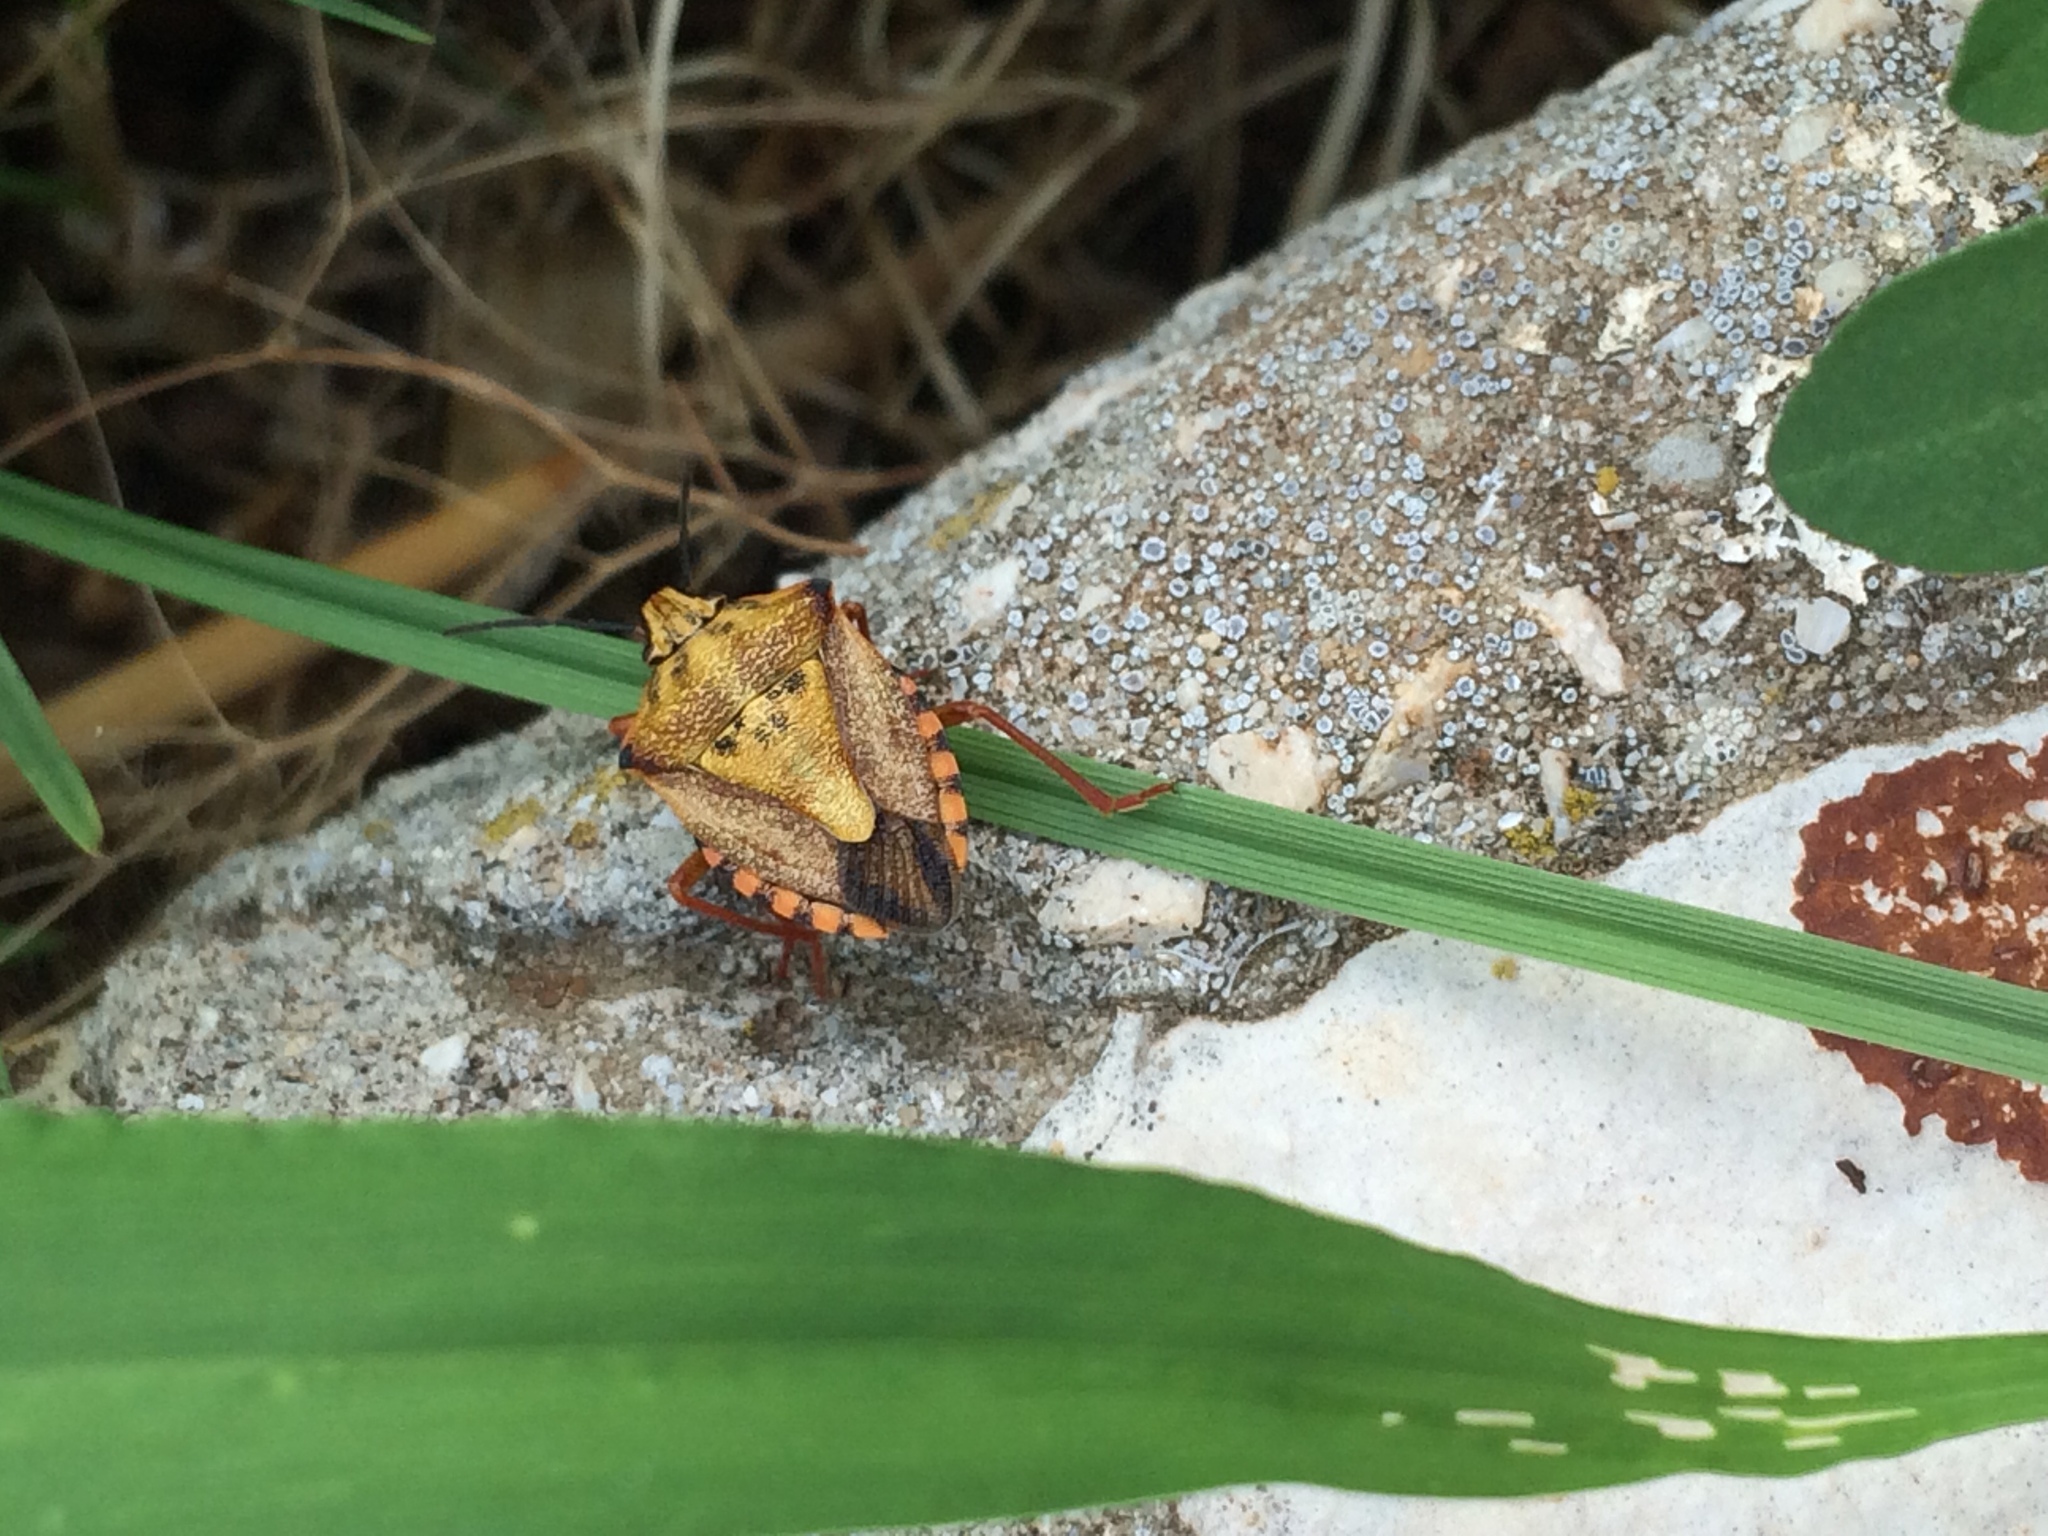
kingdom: Animalia
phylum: Arthropoda
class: Insecta
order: Hemiptera
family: Pentatomidae
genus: Carpocoris
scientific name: Carpocoris mediterraneus
